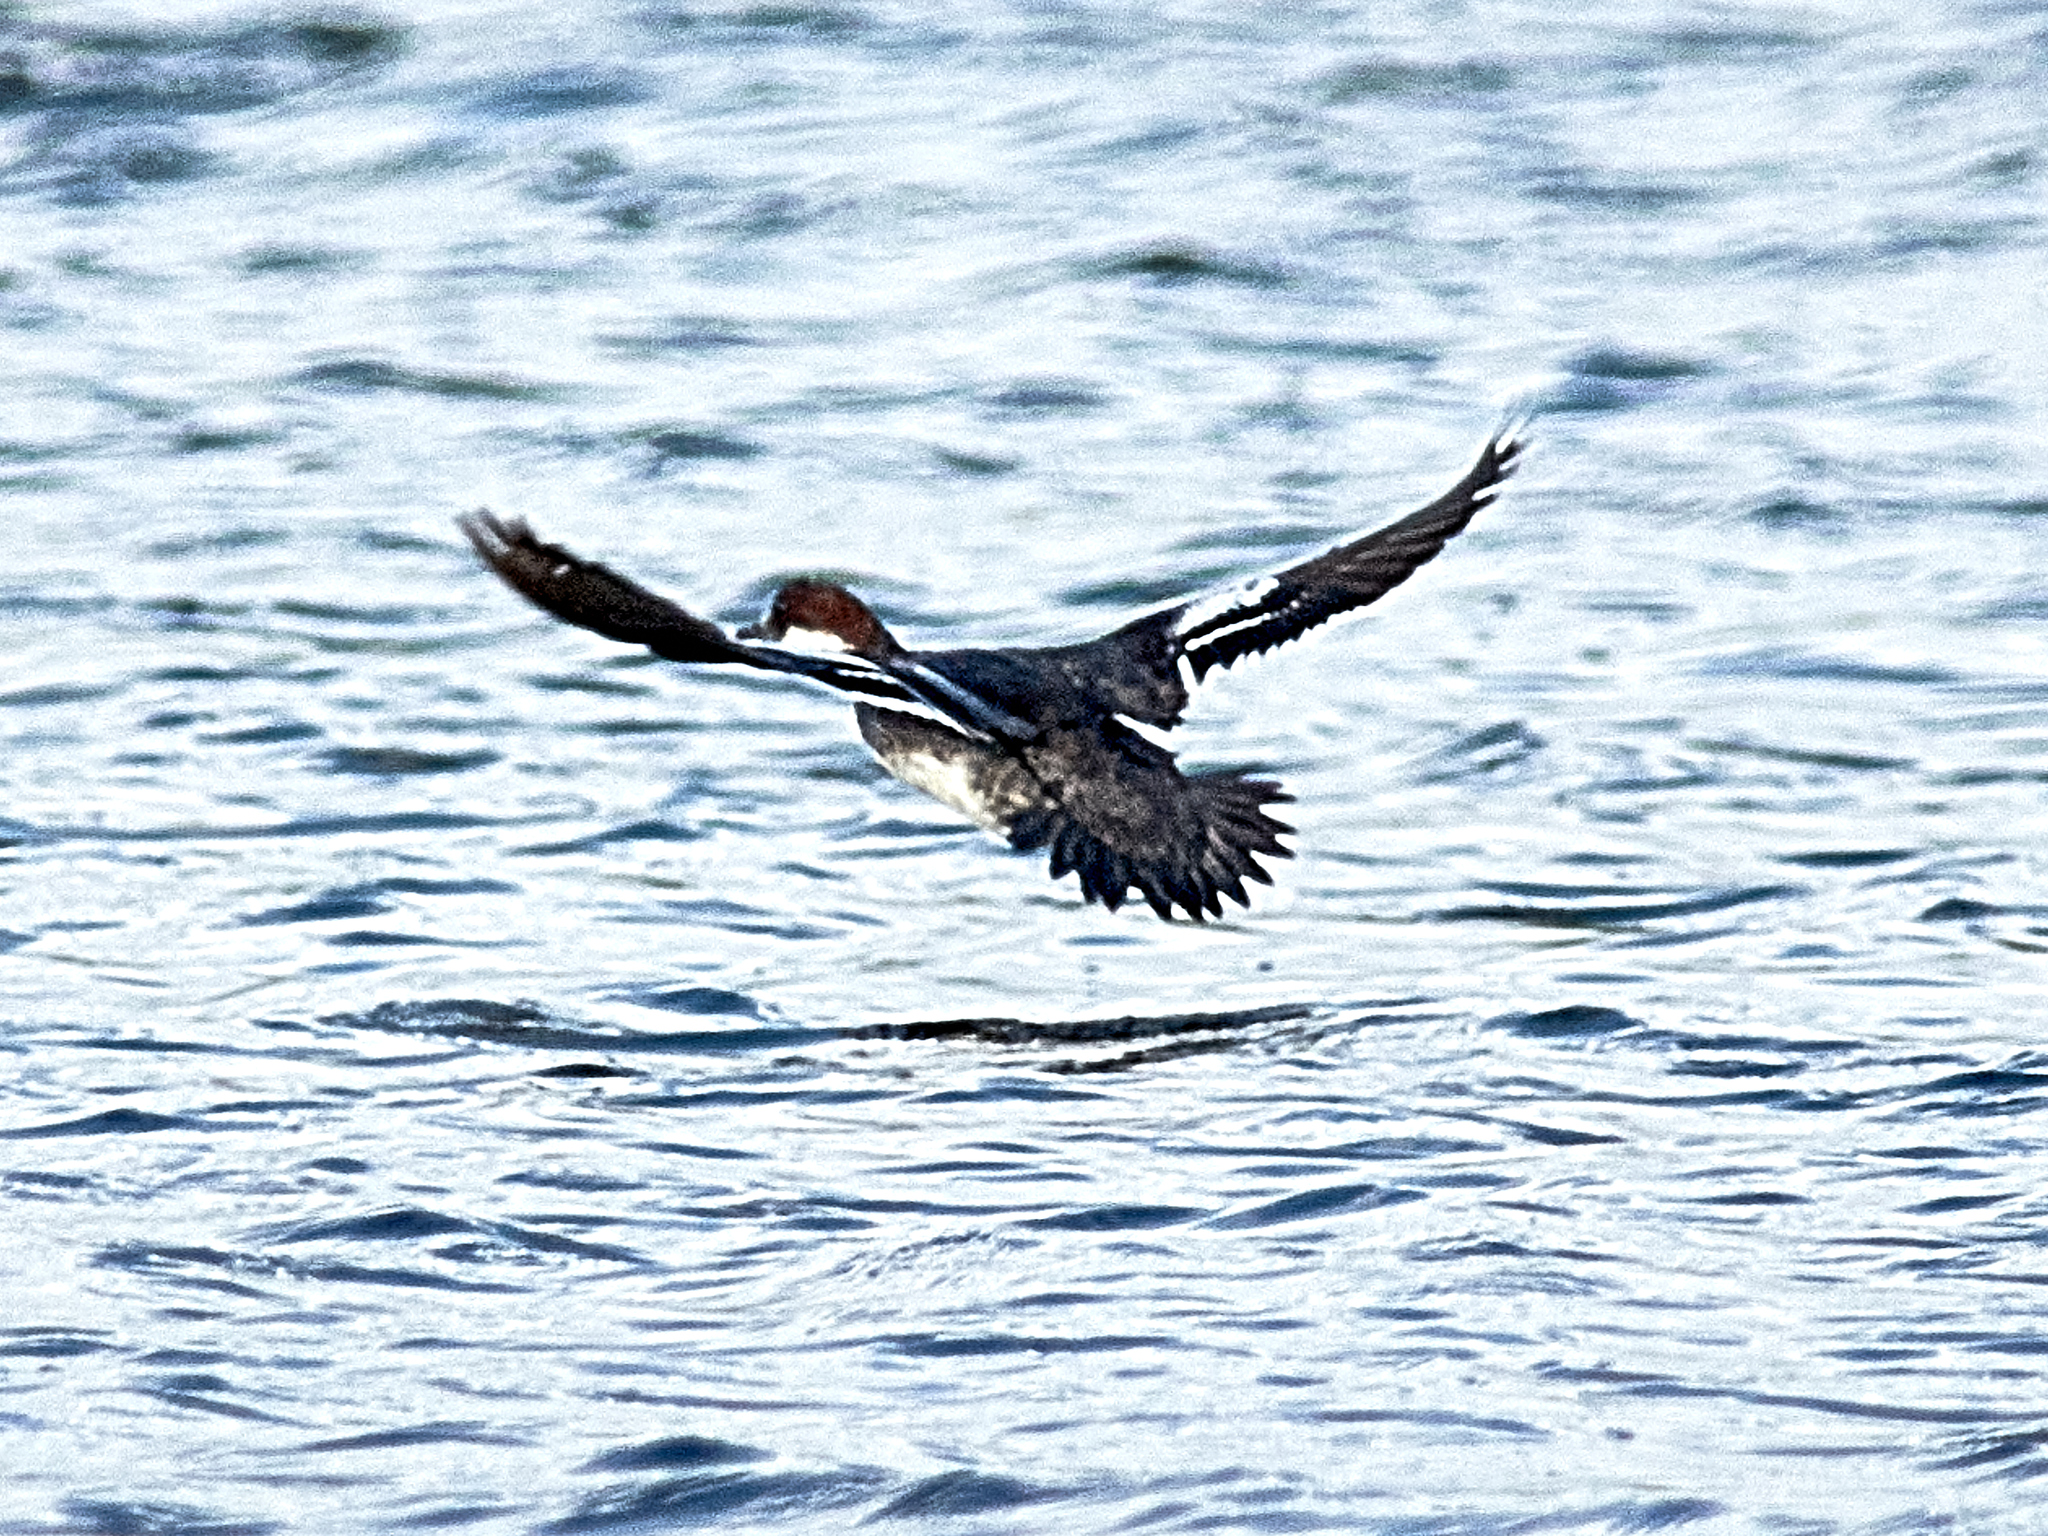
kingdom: Animalia
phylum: Chordata
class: Aves
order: Anseriformes
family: Anatidae
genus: Mergellus
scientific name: Mergellus albellus
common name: Smew
